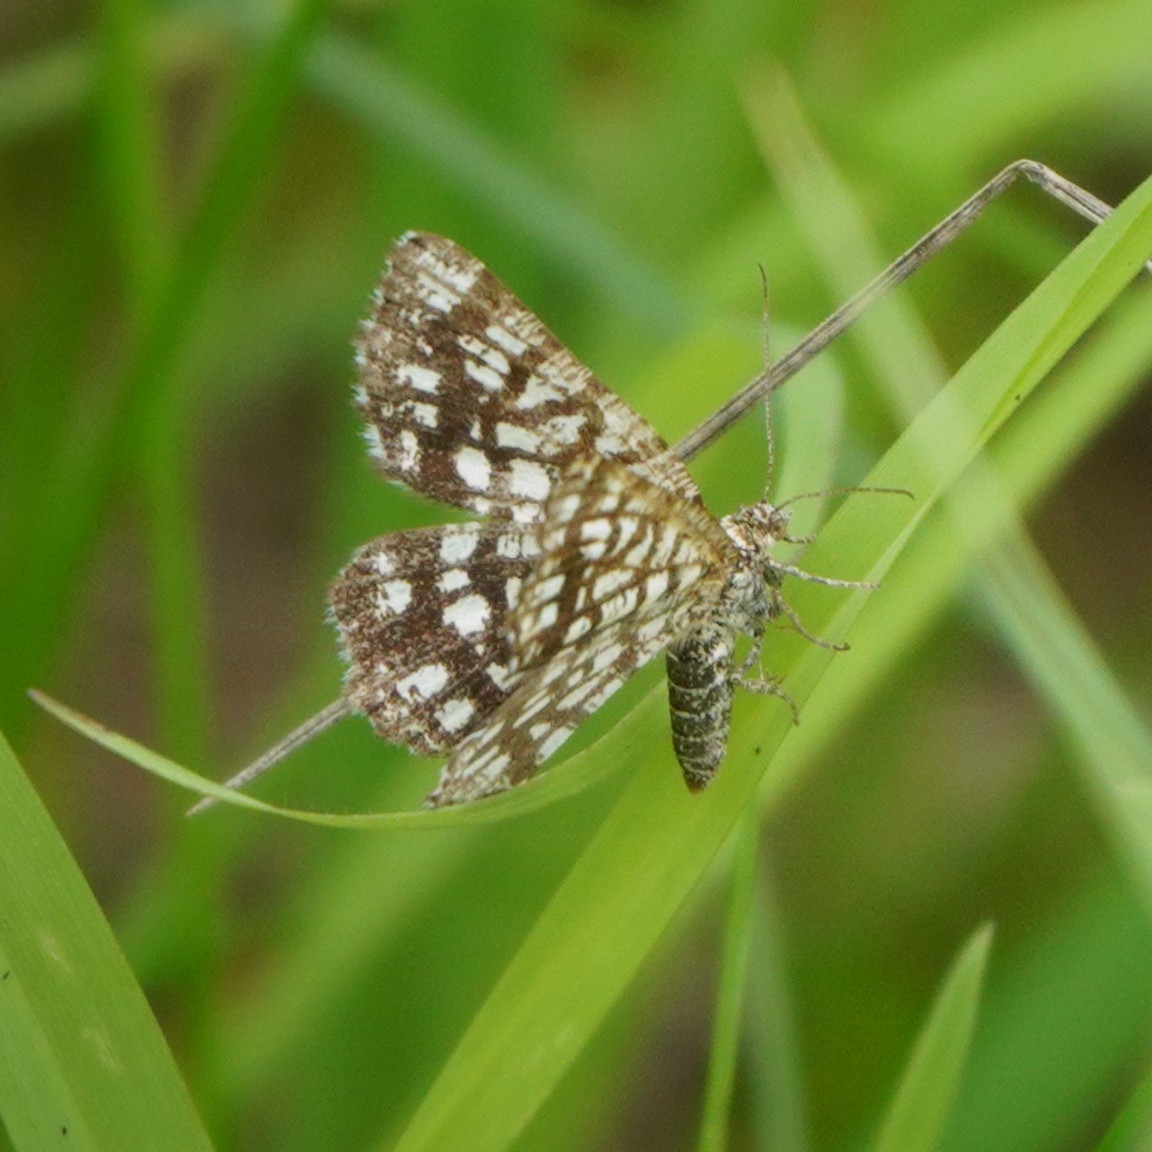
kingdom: Animalia
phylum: Arthropoda
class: Insecta
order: Lepidoptera
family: Geometridae
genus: Chiasmia
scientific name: Chiasmia clathrata
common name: Latticed heath
